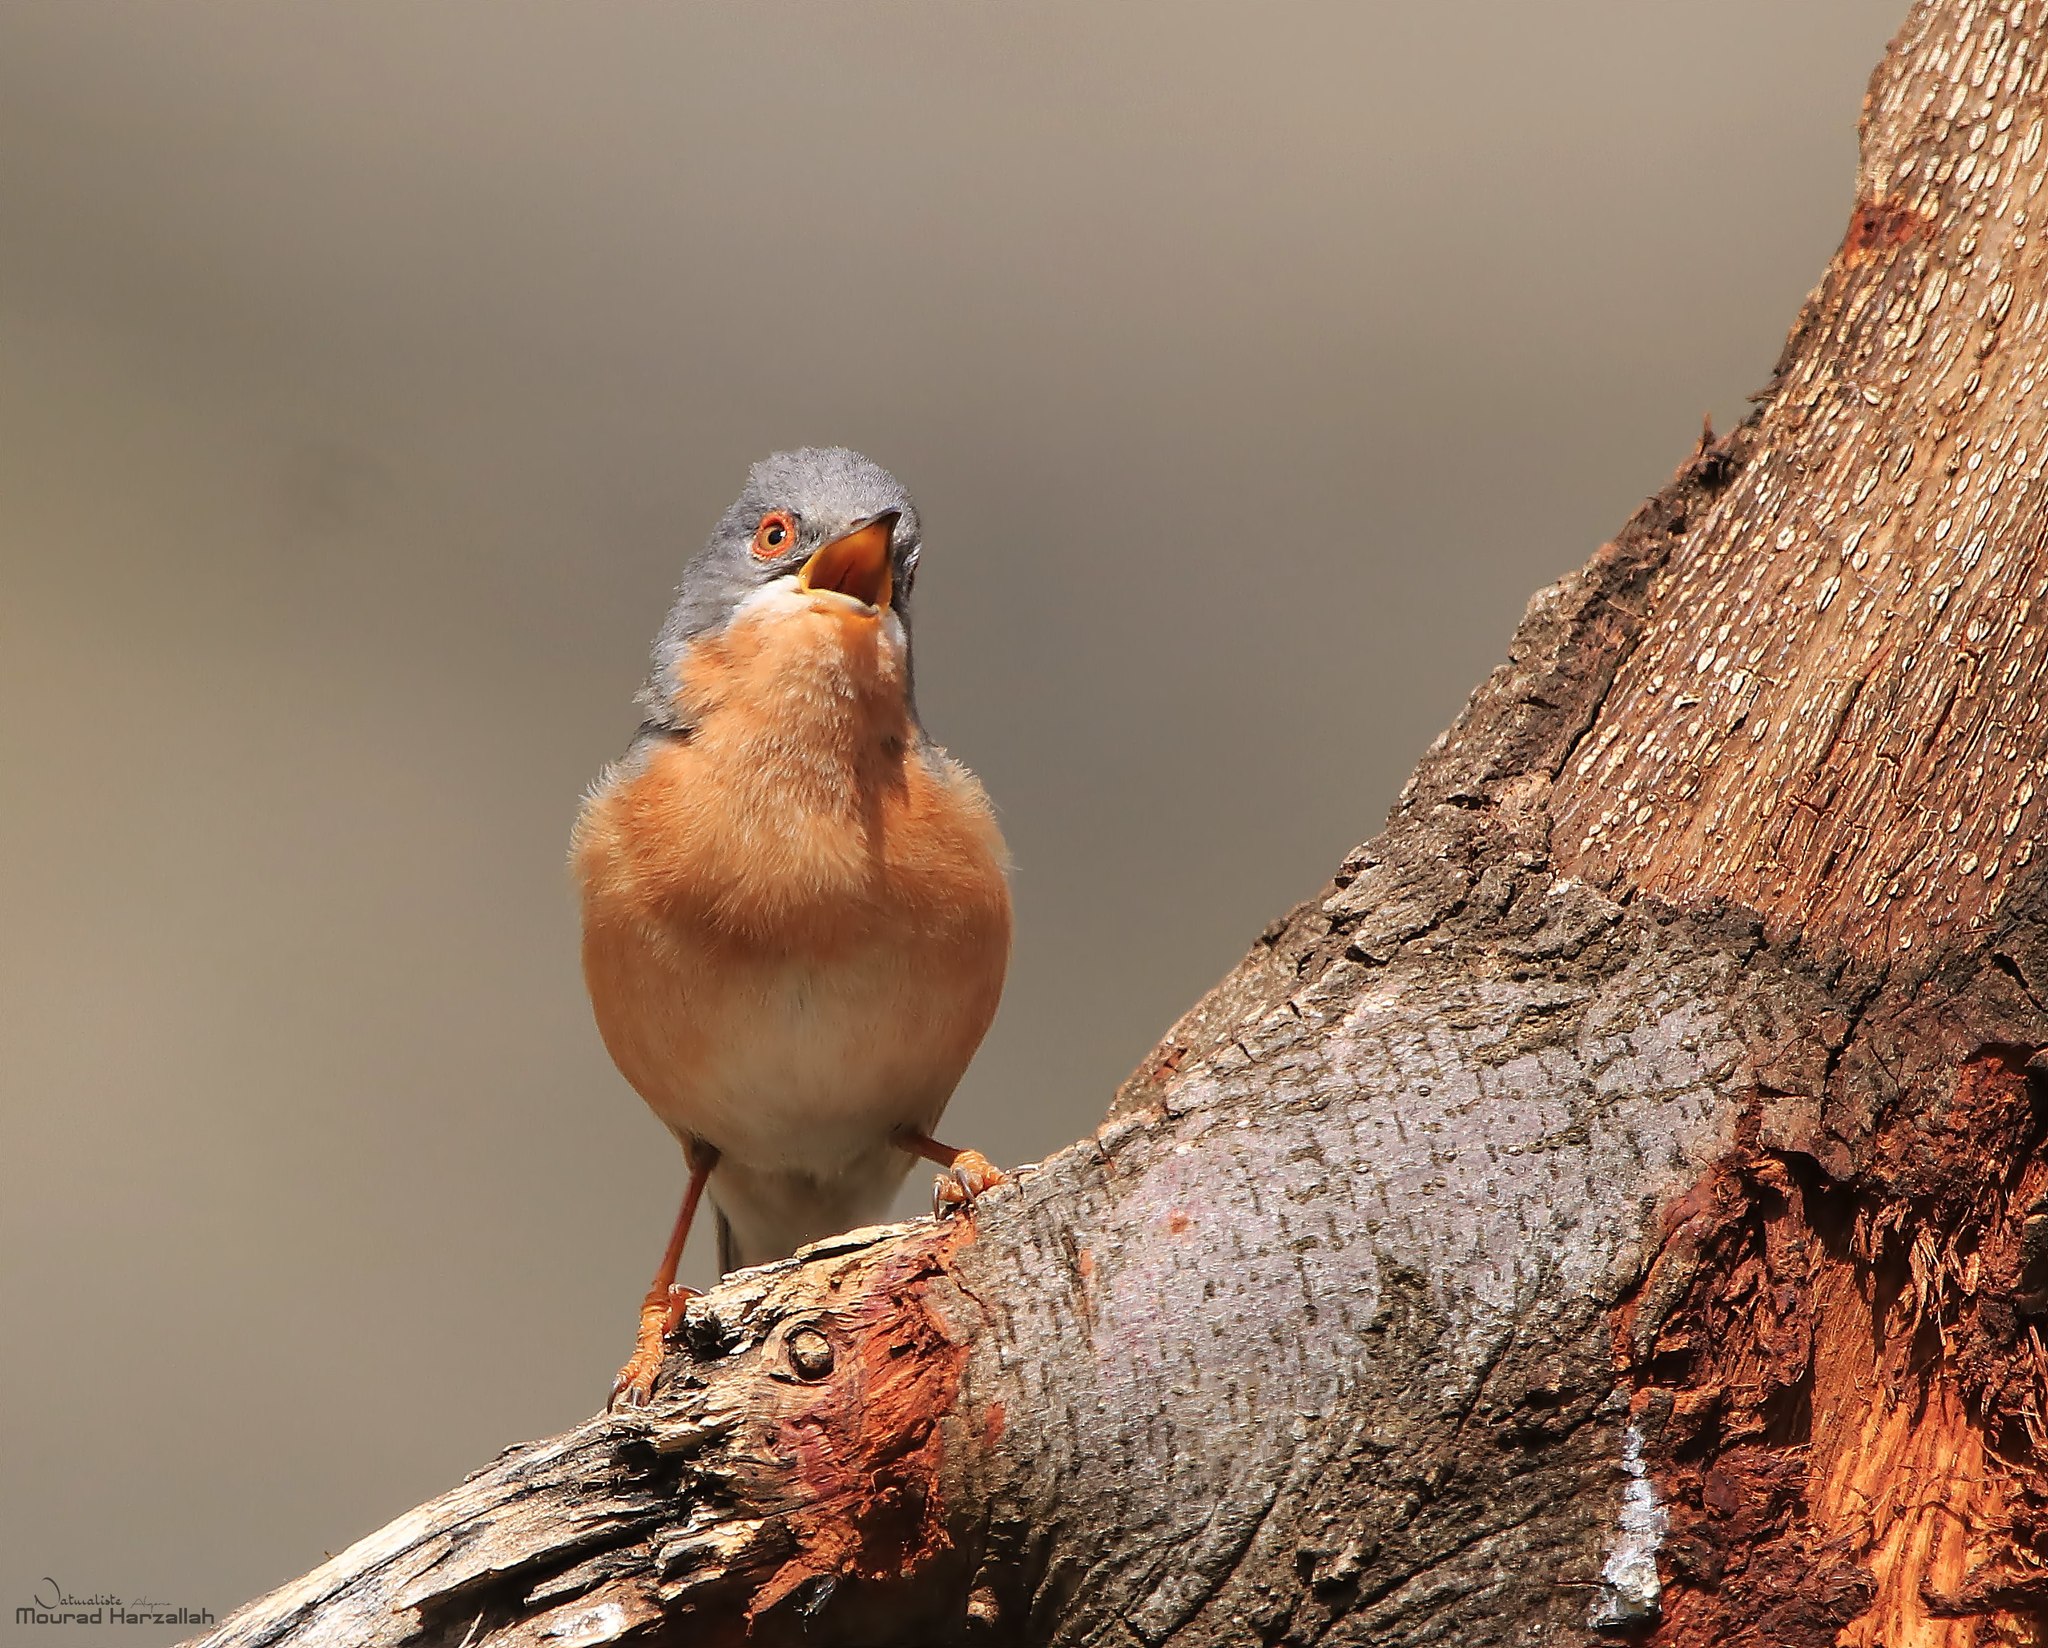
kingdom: Animalia
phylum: Chordata
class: Aves
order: Passeriformes
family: Sylviidae
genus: Curruca
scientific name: Curruca iberiae
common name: Western subalpine warbler
